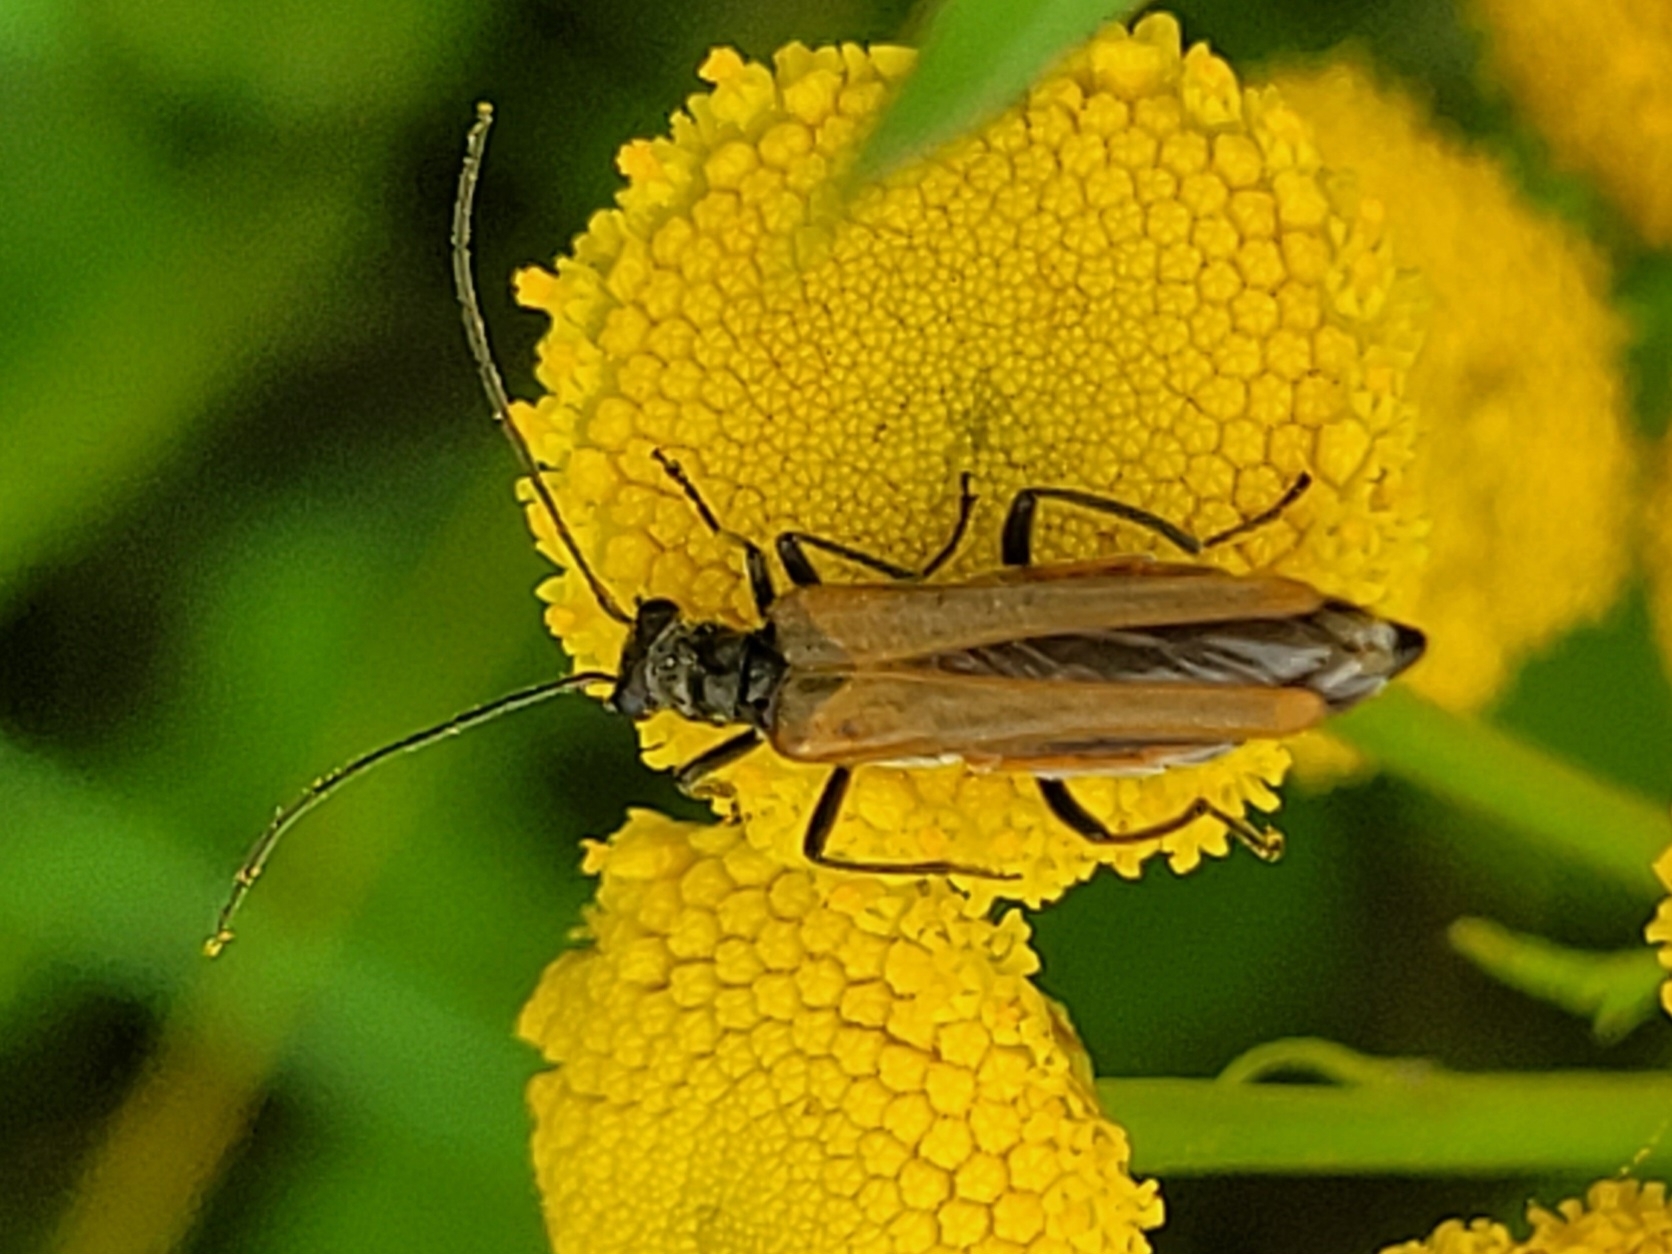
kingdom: Animalia
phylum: Arthropoda
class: Insecta
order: Coleoptera
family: Oedemeridae
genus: Oedemera
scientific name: Oedemera femorata
